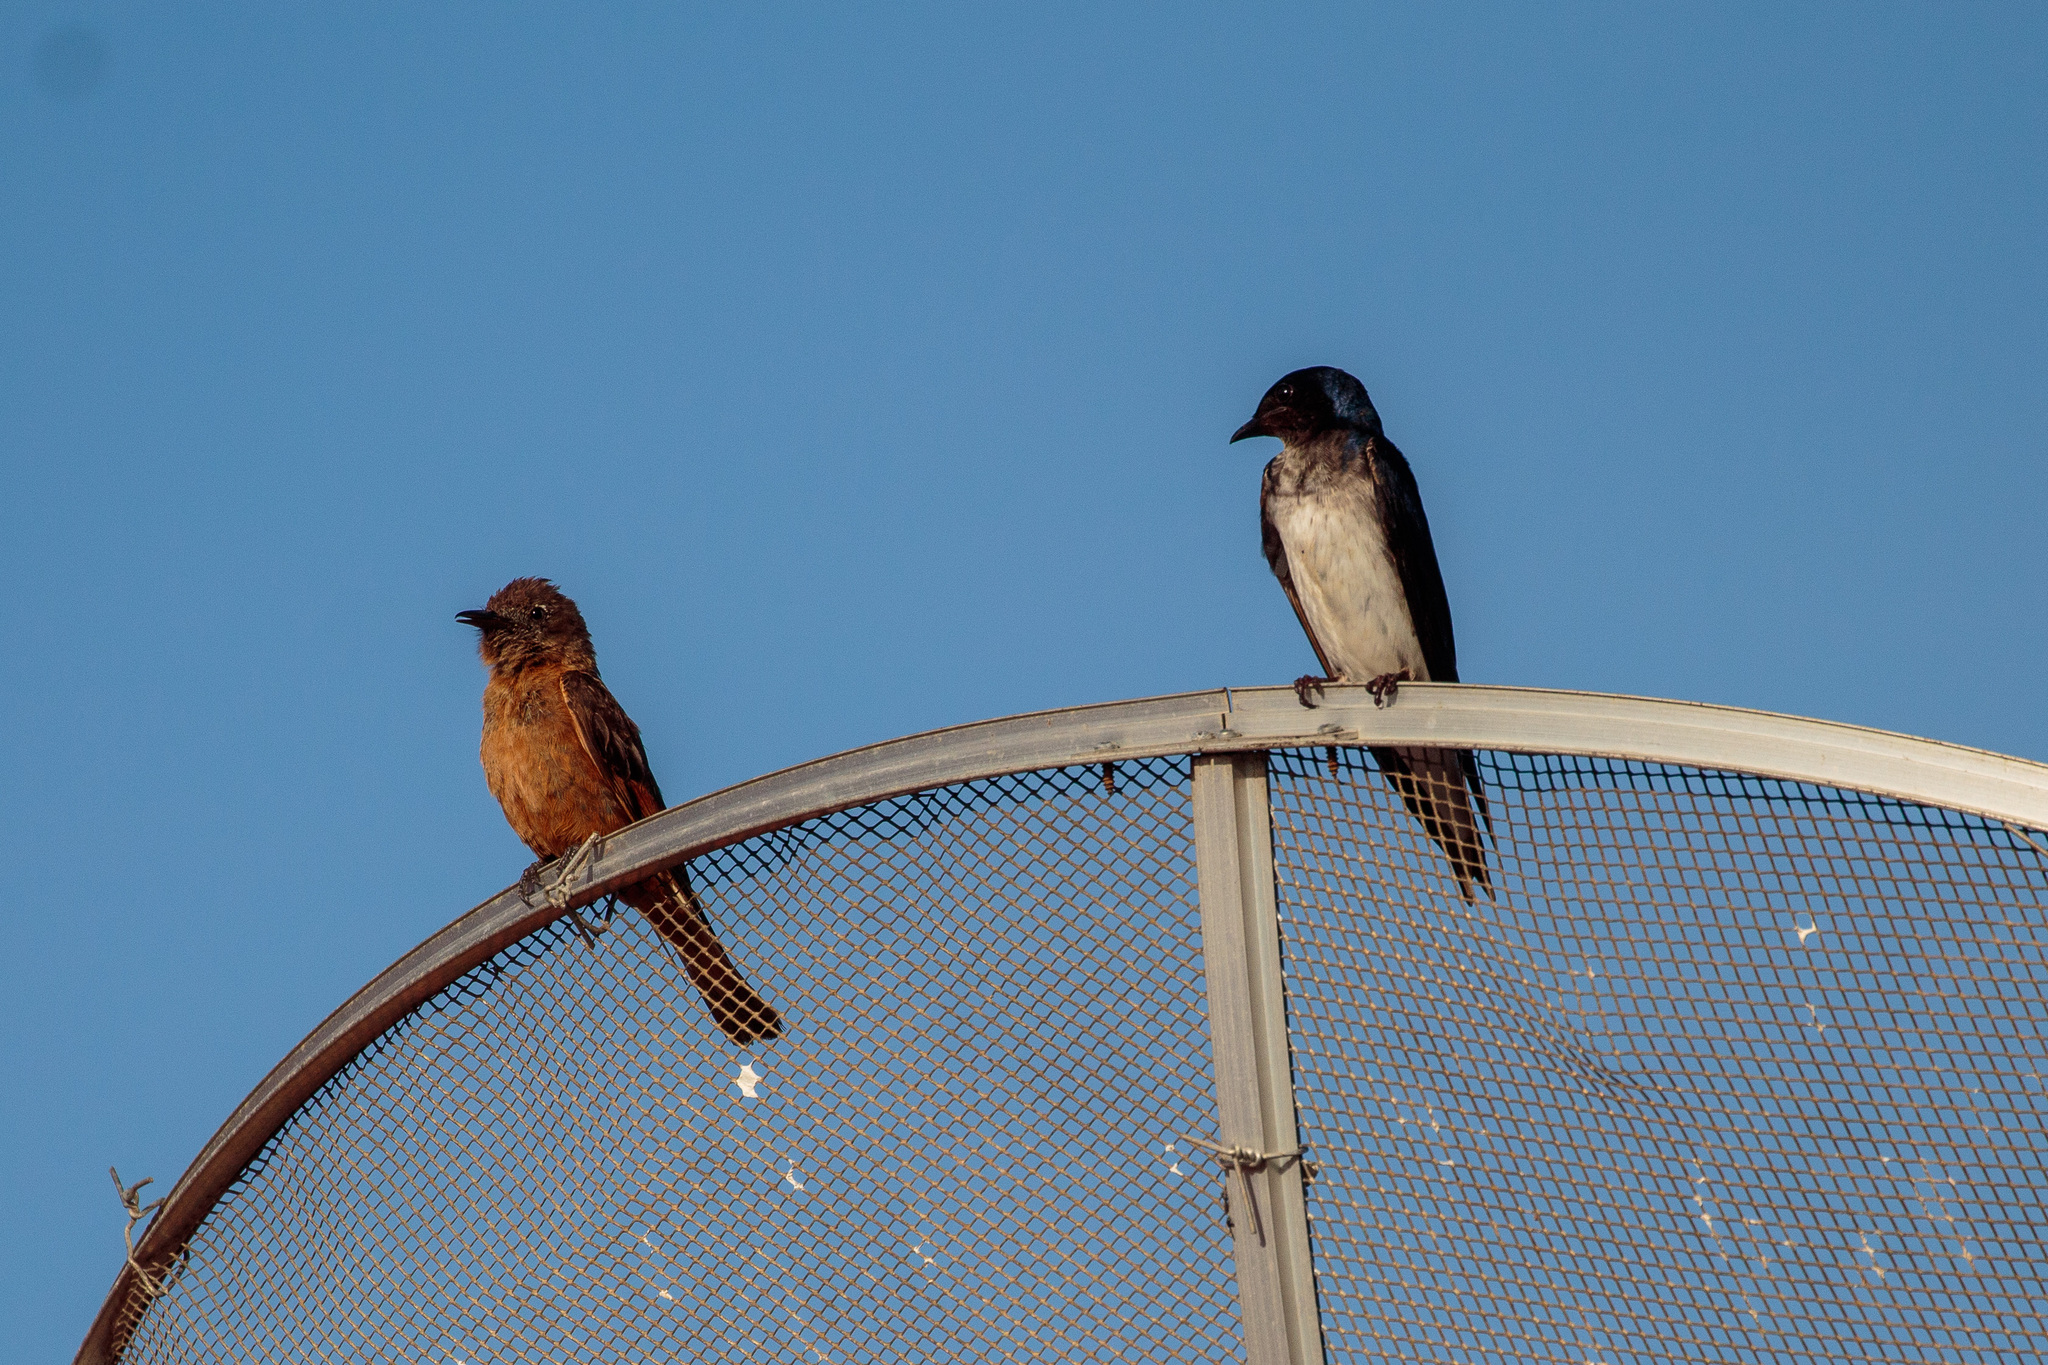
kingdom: Animalia
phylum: Chordata
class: Aves
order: Passeriformes
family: Tyrannidae
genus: Hirundinea
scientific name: Hirundinea ferruginea
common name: Cliff flycatcher
